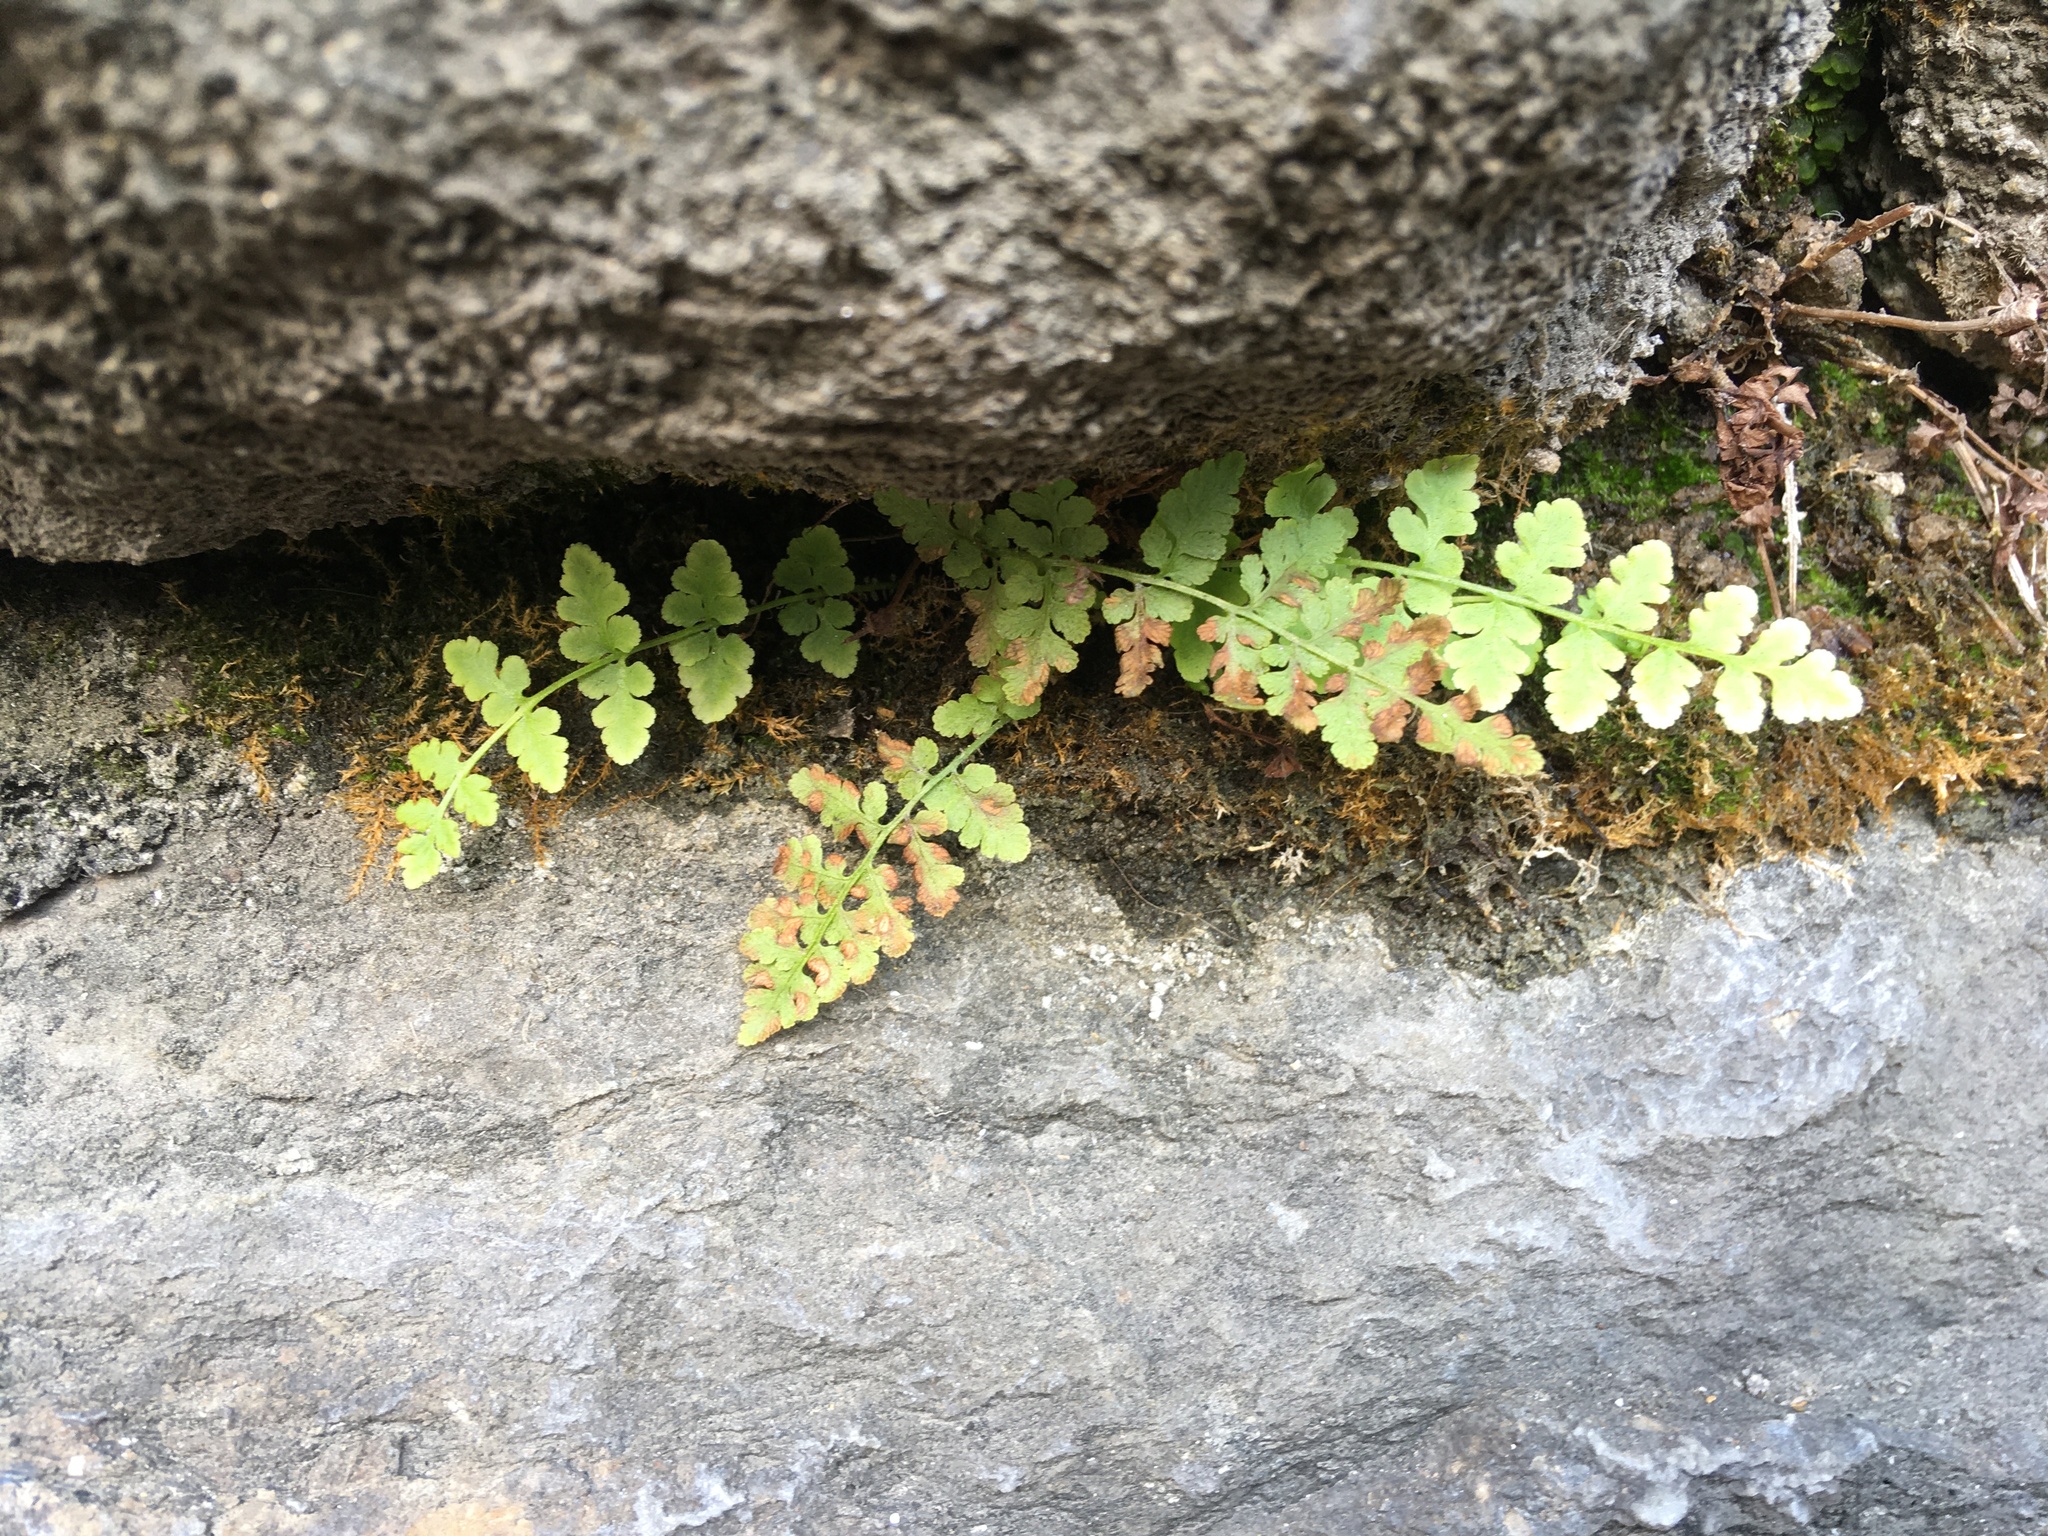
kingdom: Plantae
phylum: Tracheophyta
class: Polypodiopsida
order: Polypodiales
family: Woodsiaceae
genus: Physematium
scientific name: Physematium obtusum
